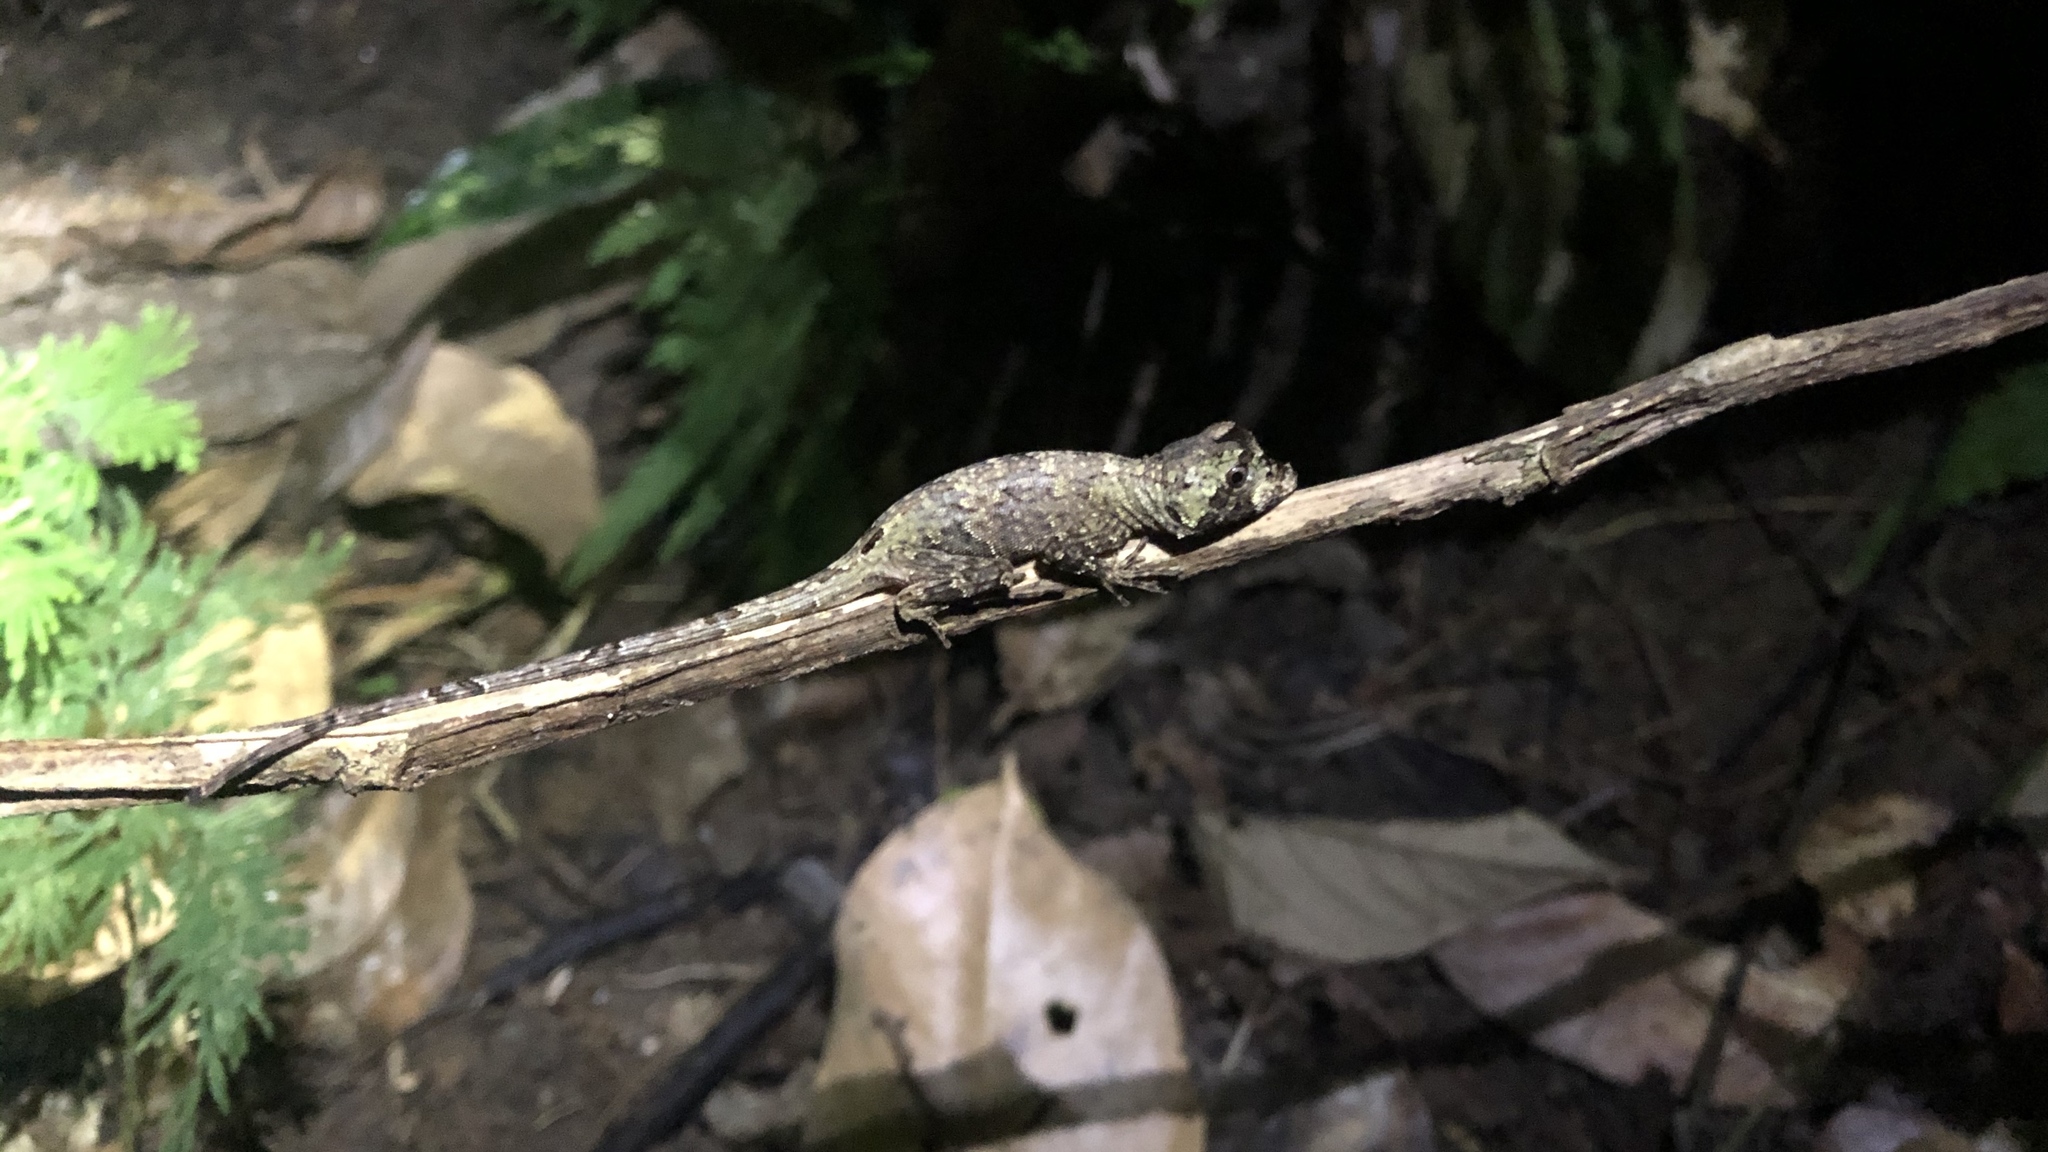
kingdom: Animalia
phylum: Chordata
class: Squamata
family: Dactyloidae
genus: Anolis
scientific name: Anolis capito
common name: Bighead anole
